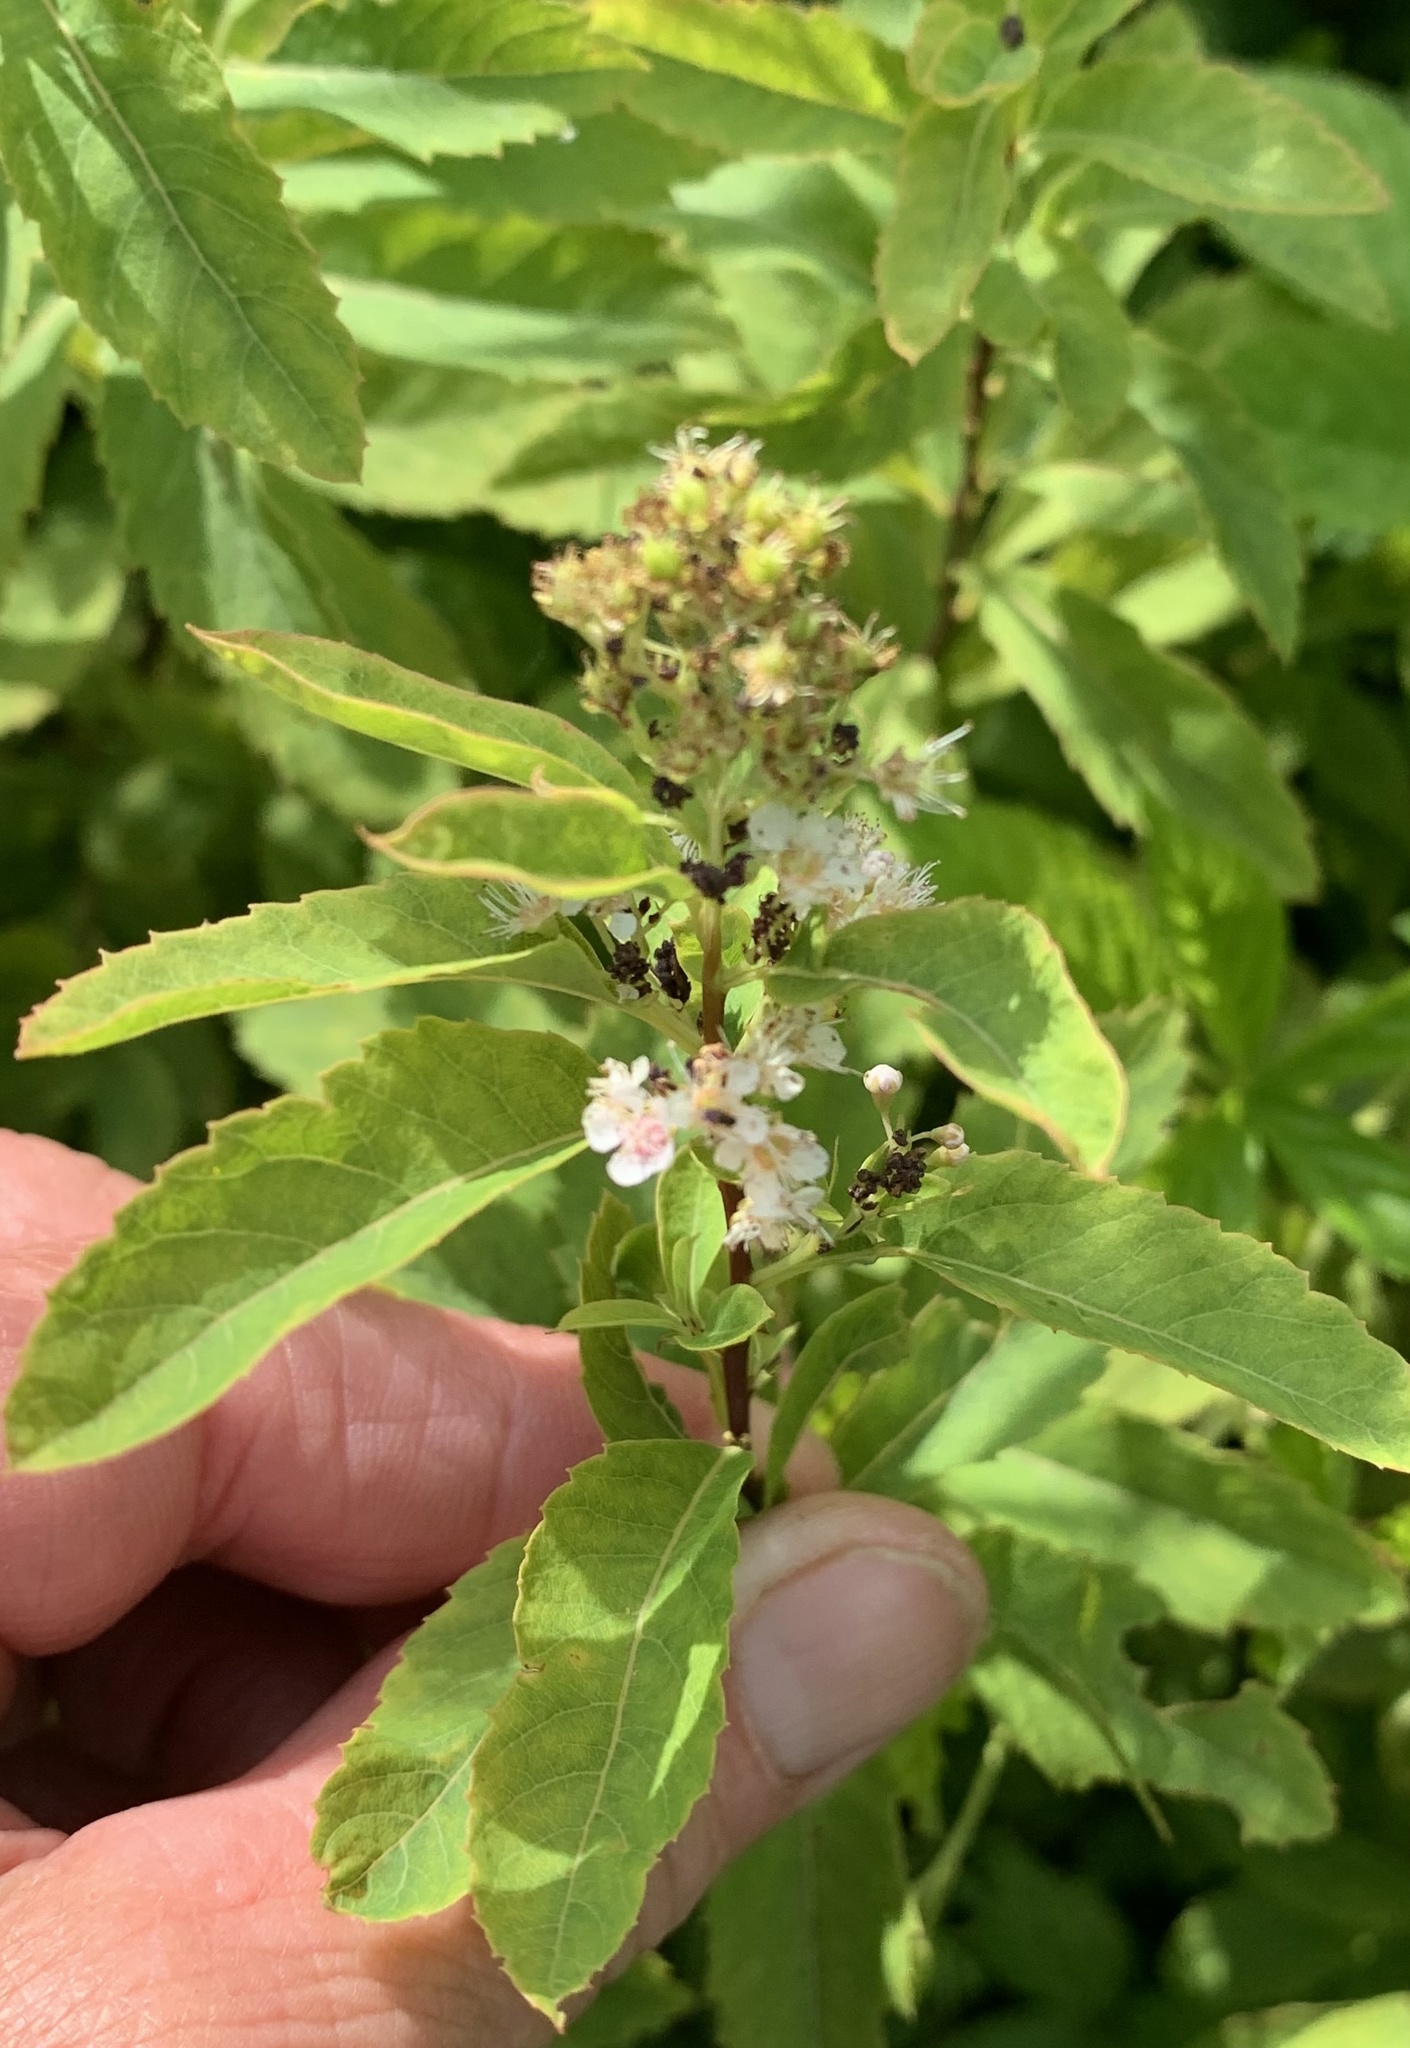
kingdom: Plantae
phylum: Tracheophyta
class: Magnoliopsida
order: Rosales
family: Rosaceae
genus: Spiraea
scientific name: Spiraea alba
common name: Pale bridewort
